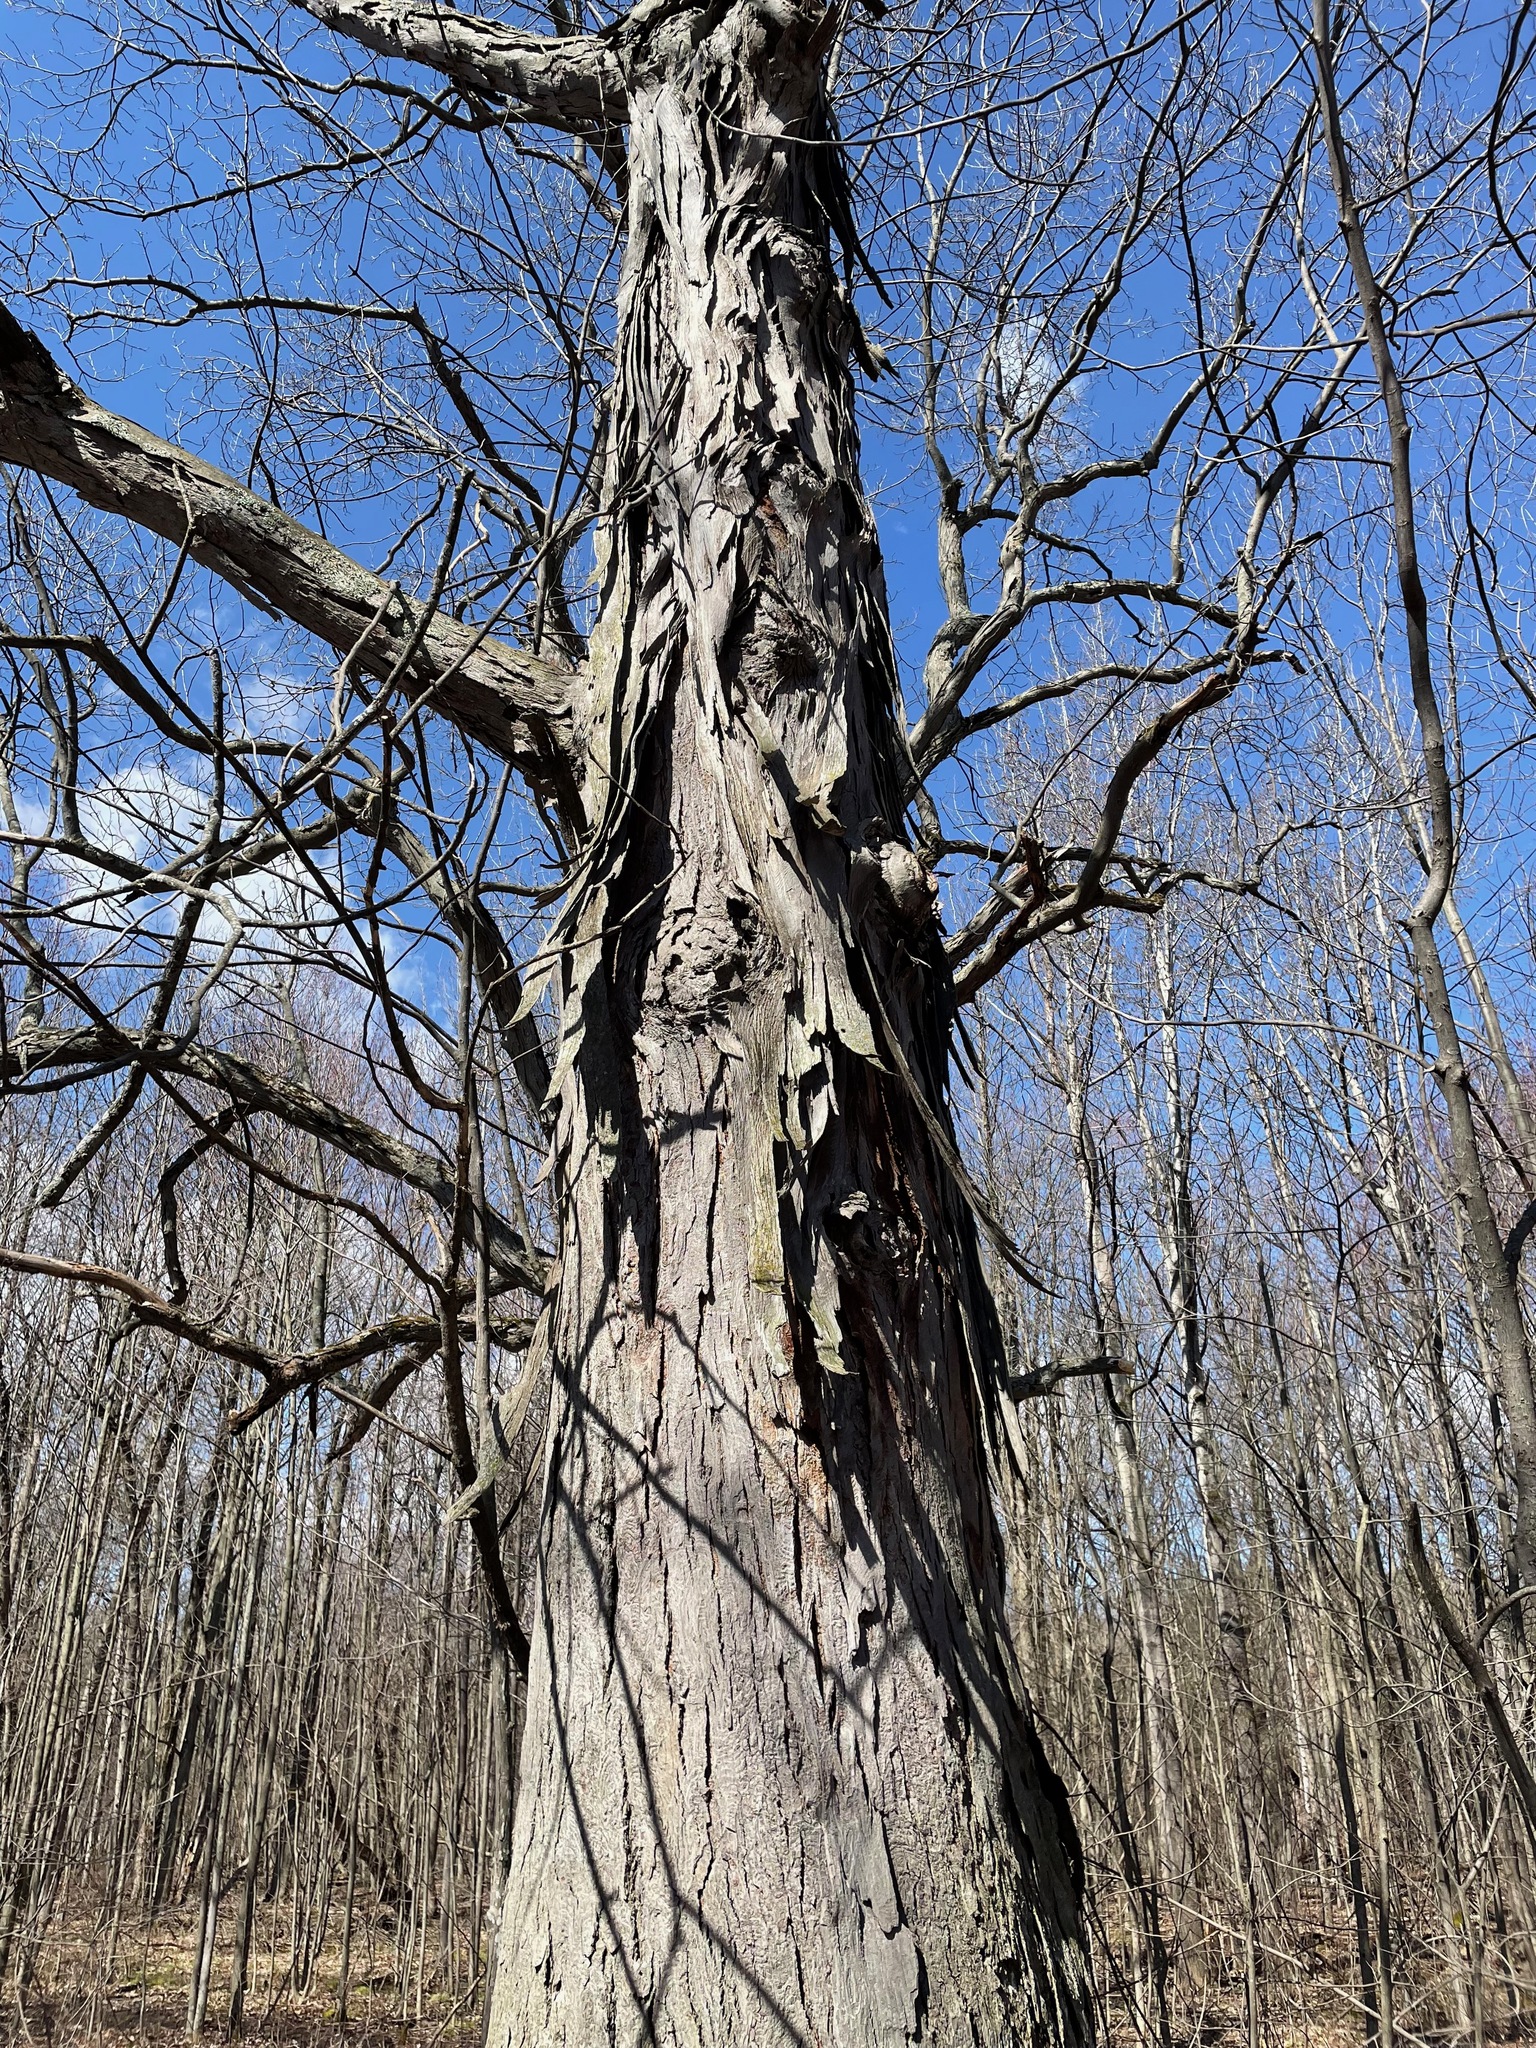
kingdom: Plantae
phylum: Tracheophyta
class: Magnoliopsida
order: Fagales
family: Juglandaceae
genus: Carya
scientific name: Carya ovata
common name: Shagbark hickory
